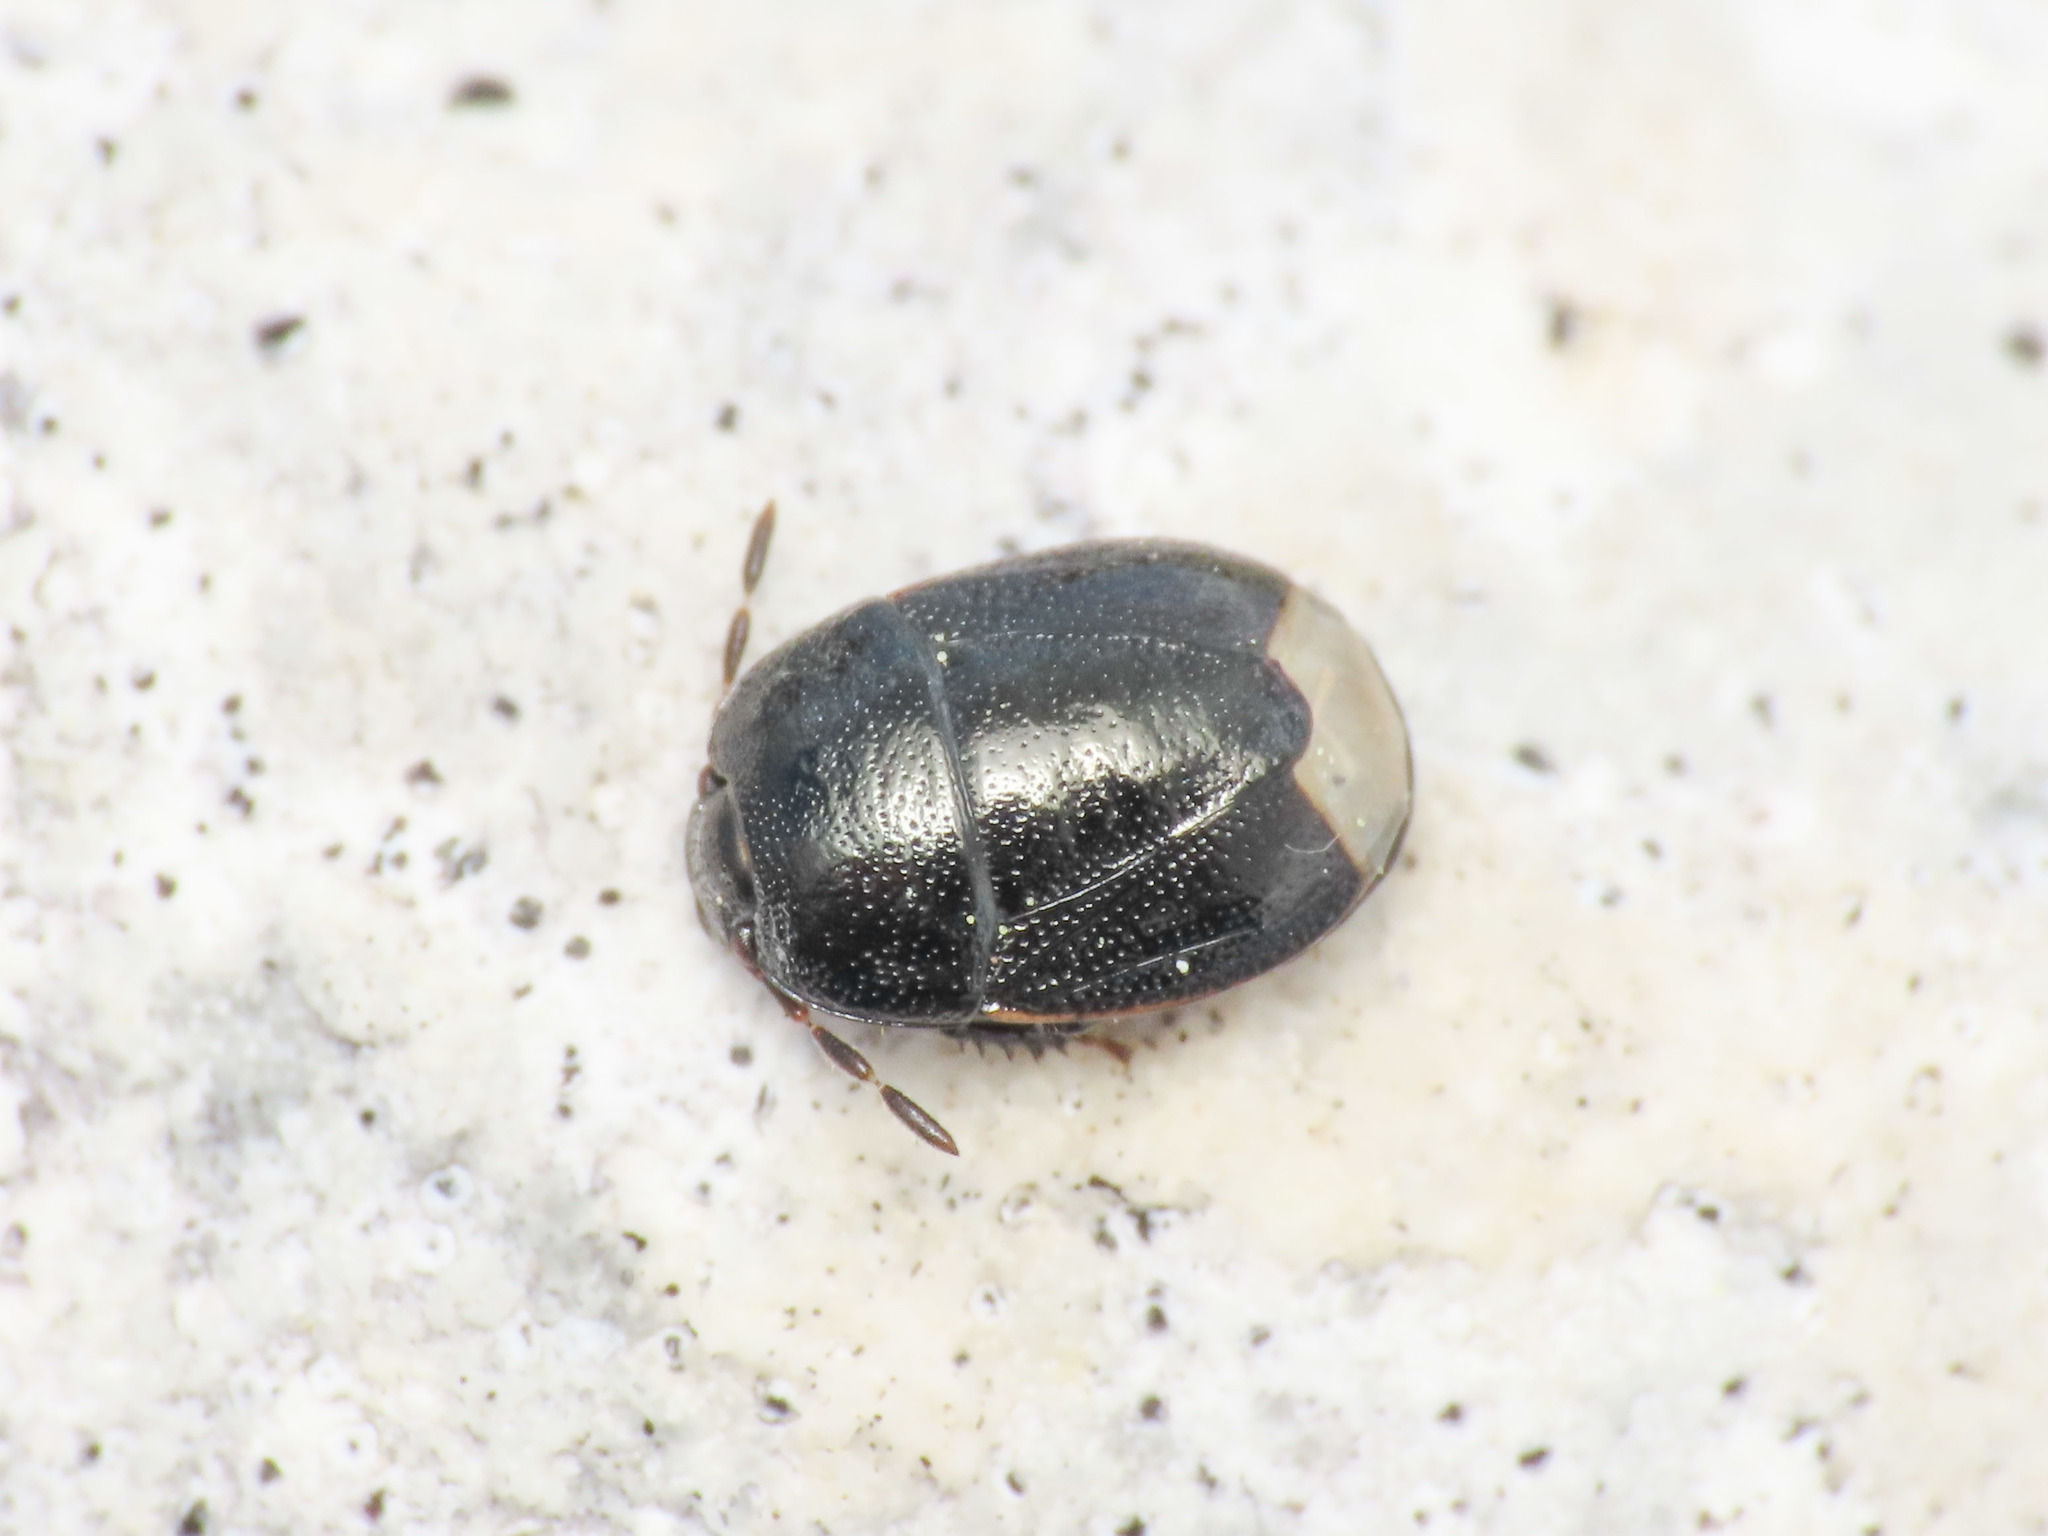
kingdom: Animalia
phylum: Arthropoda
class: Insecta
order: Hemiptera
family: Cydnidae
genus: Legnotus
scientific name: Legnotus picipes
